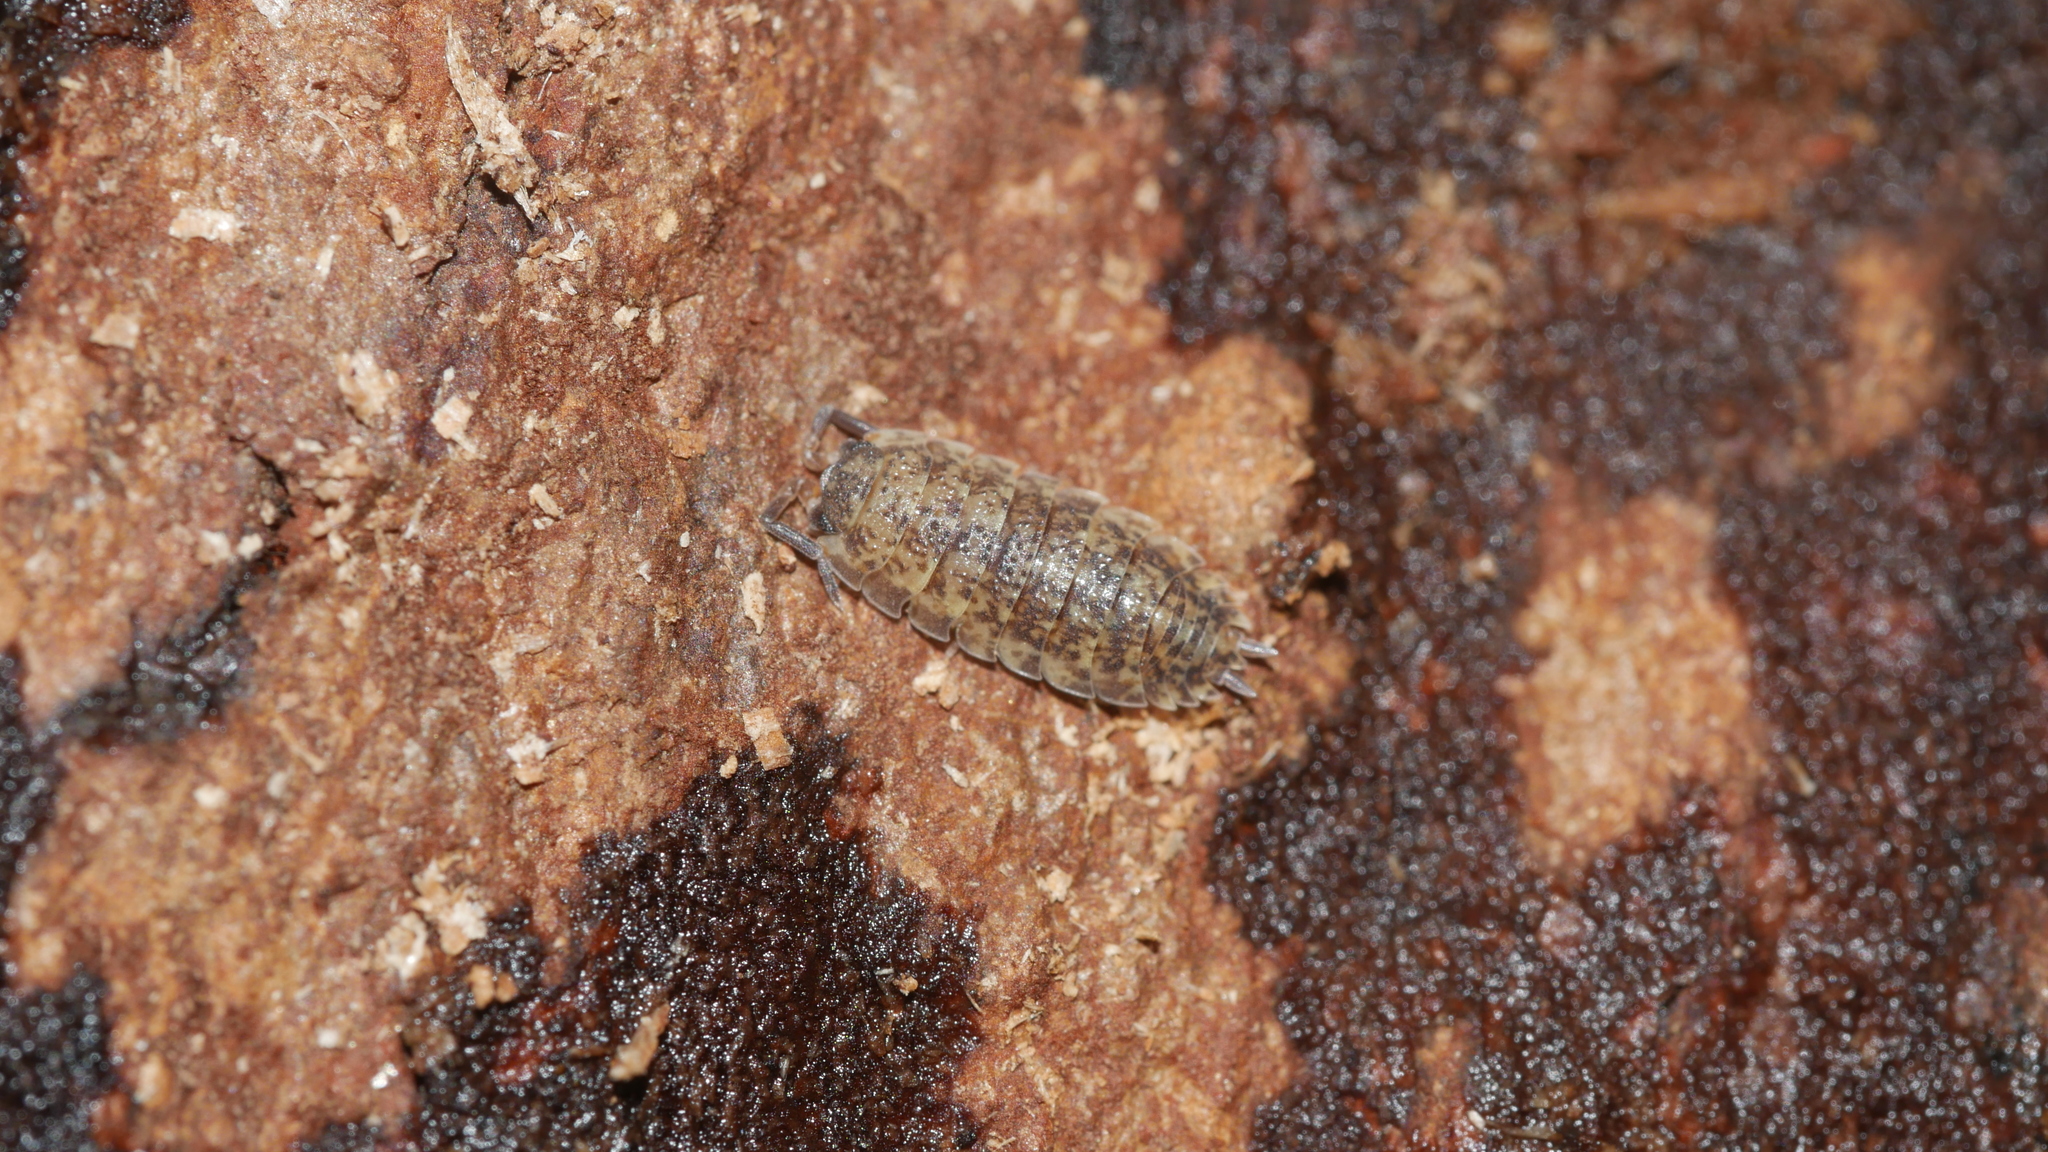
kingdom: Animalia
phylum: Arthropoda
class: Malacostraca
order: Isopoda
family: Porcellionidae
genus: Porcellio
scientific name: Porcellio scaber
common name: Common rough woodlouse
